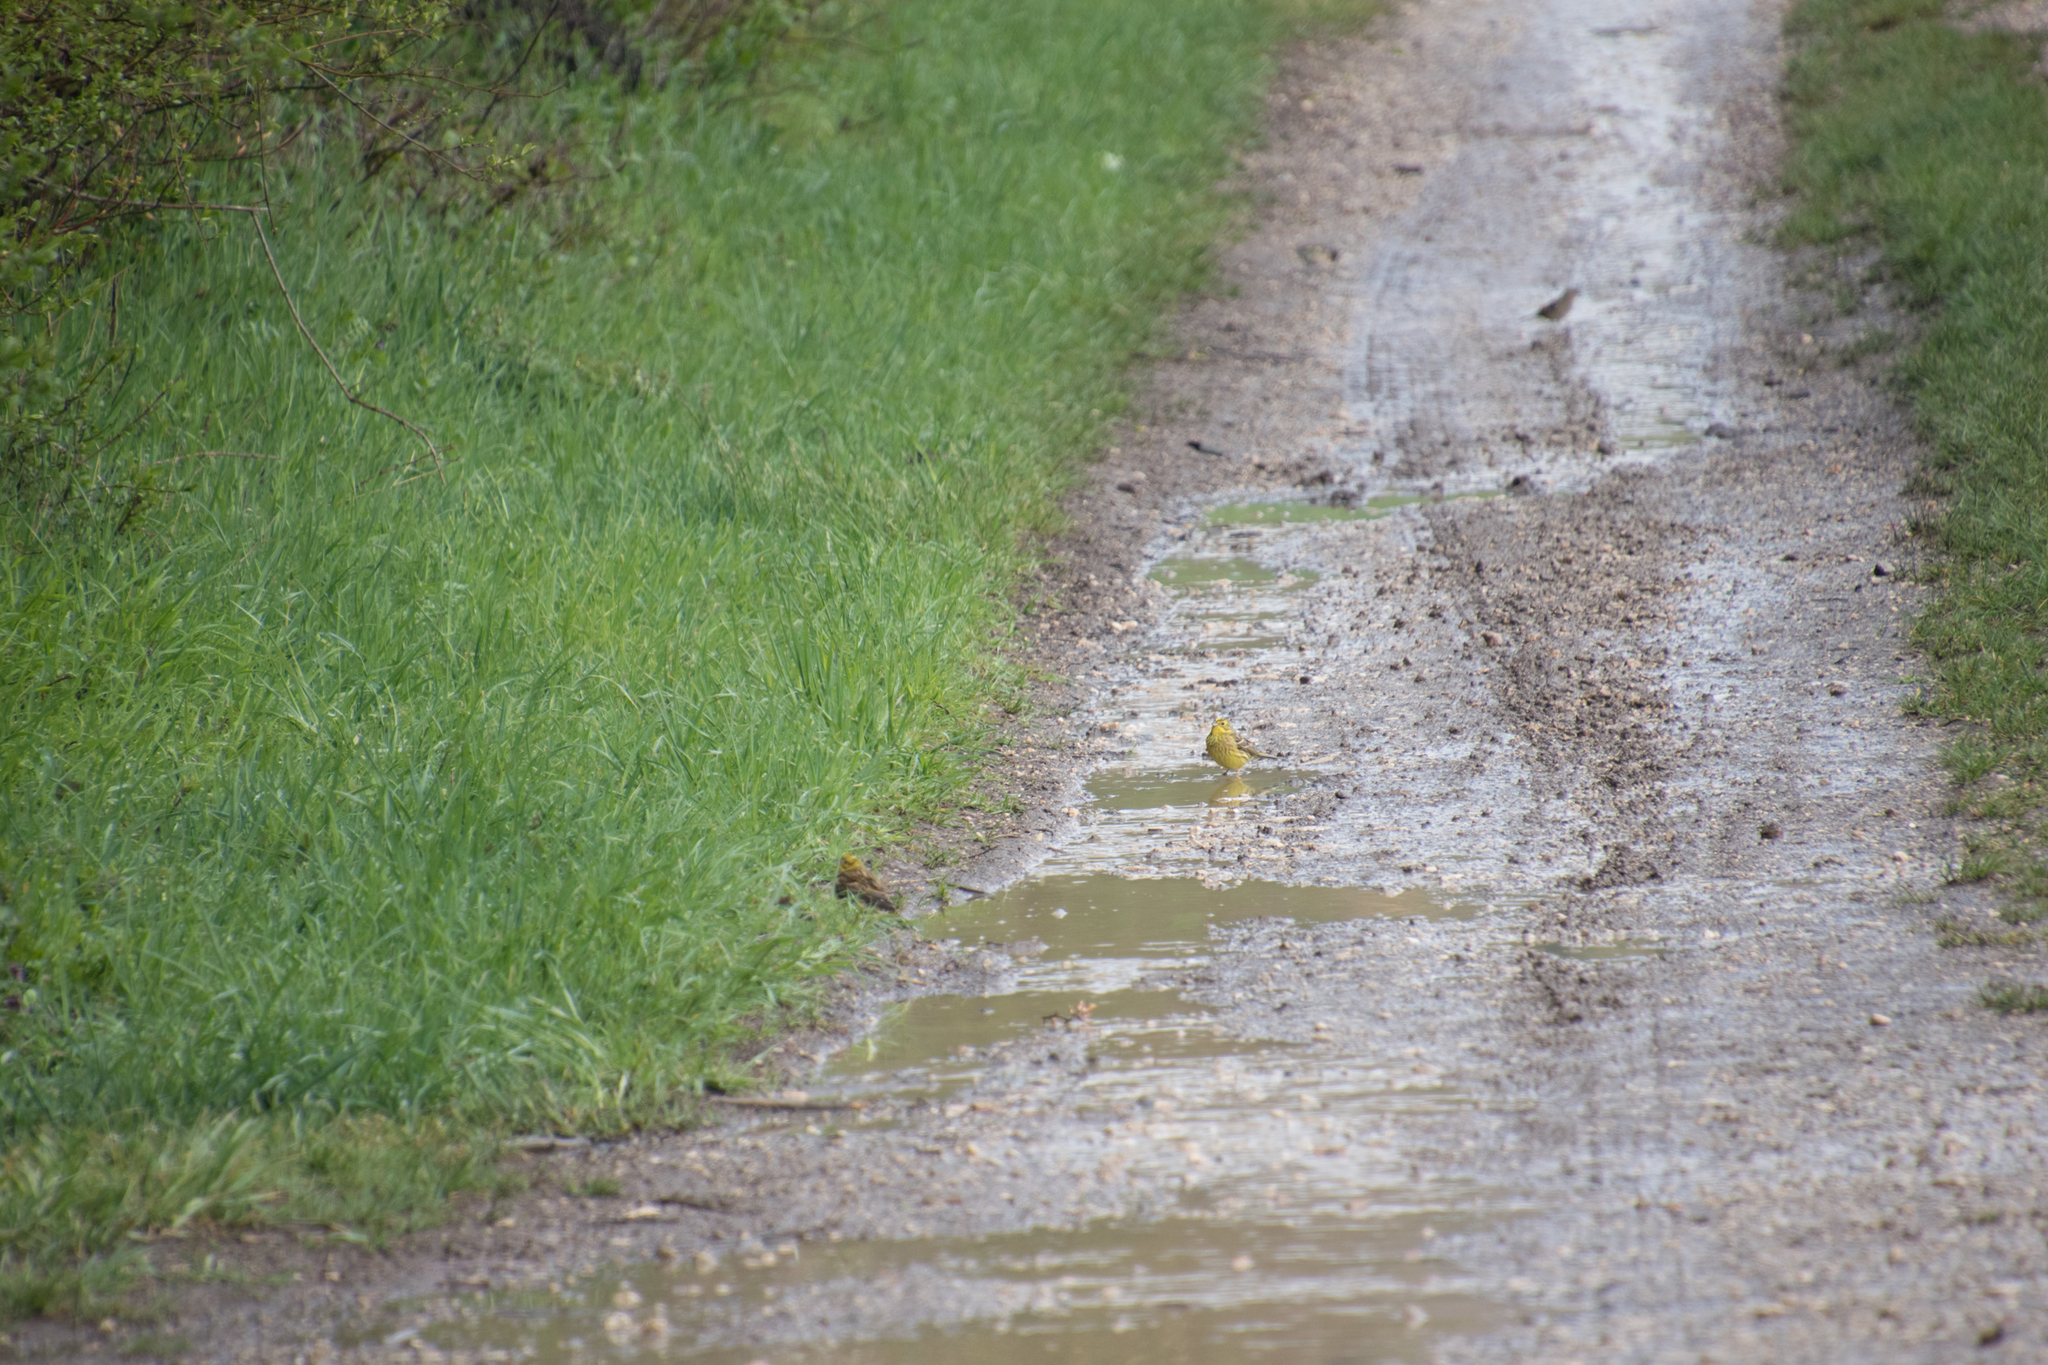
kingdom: Animalia
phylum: Chordata
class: Aves
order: Passeriformes
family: Emberizidae
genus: Emberiza
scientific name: Emberiza citrinella
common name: Yellowhammer
